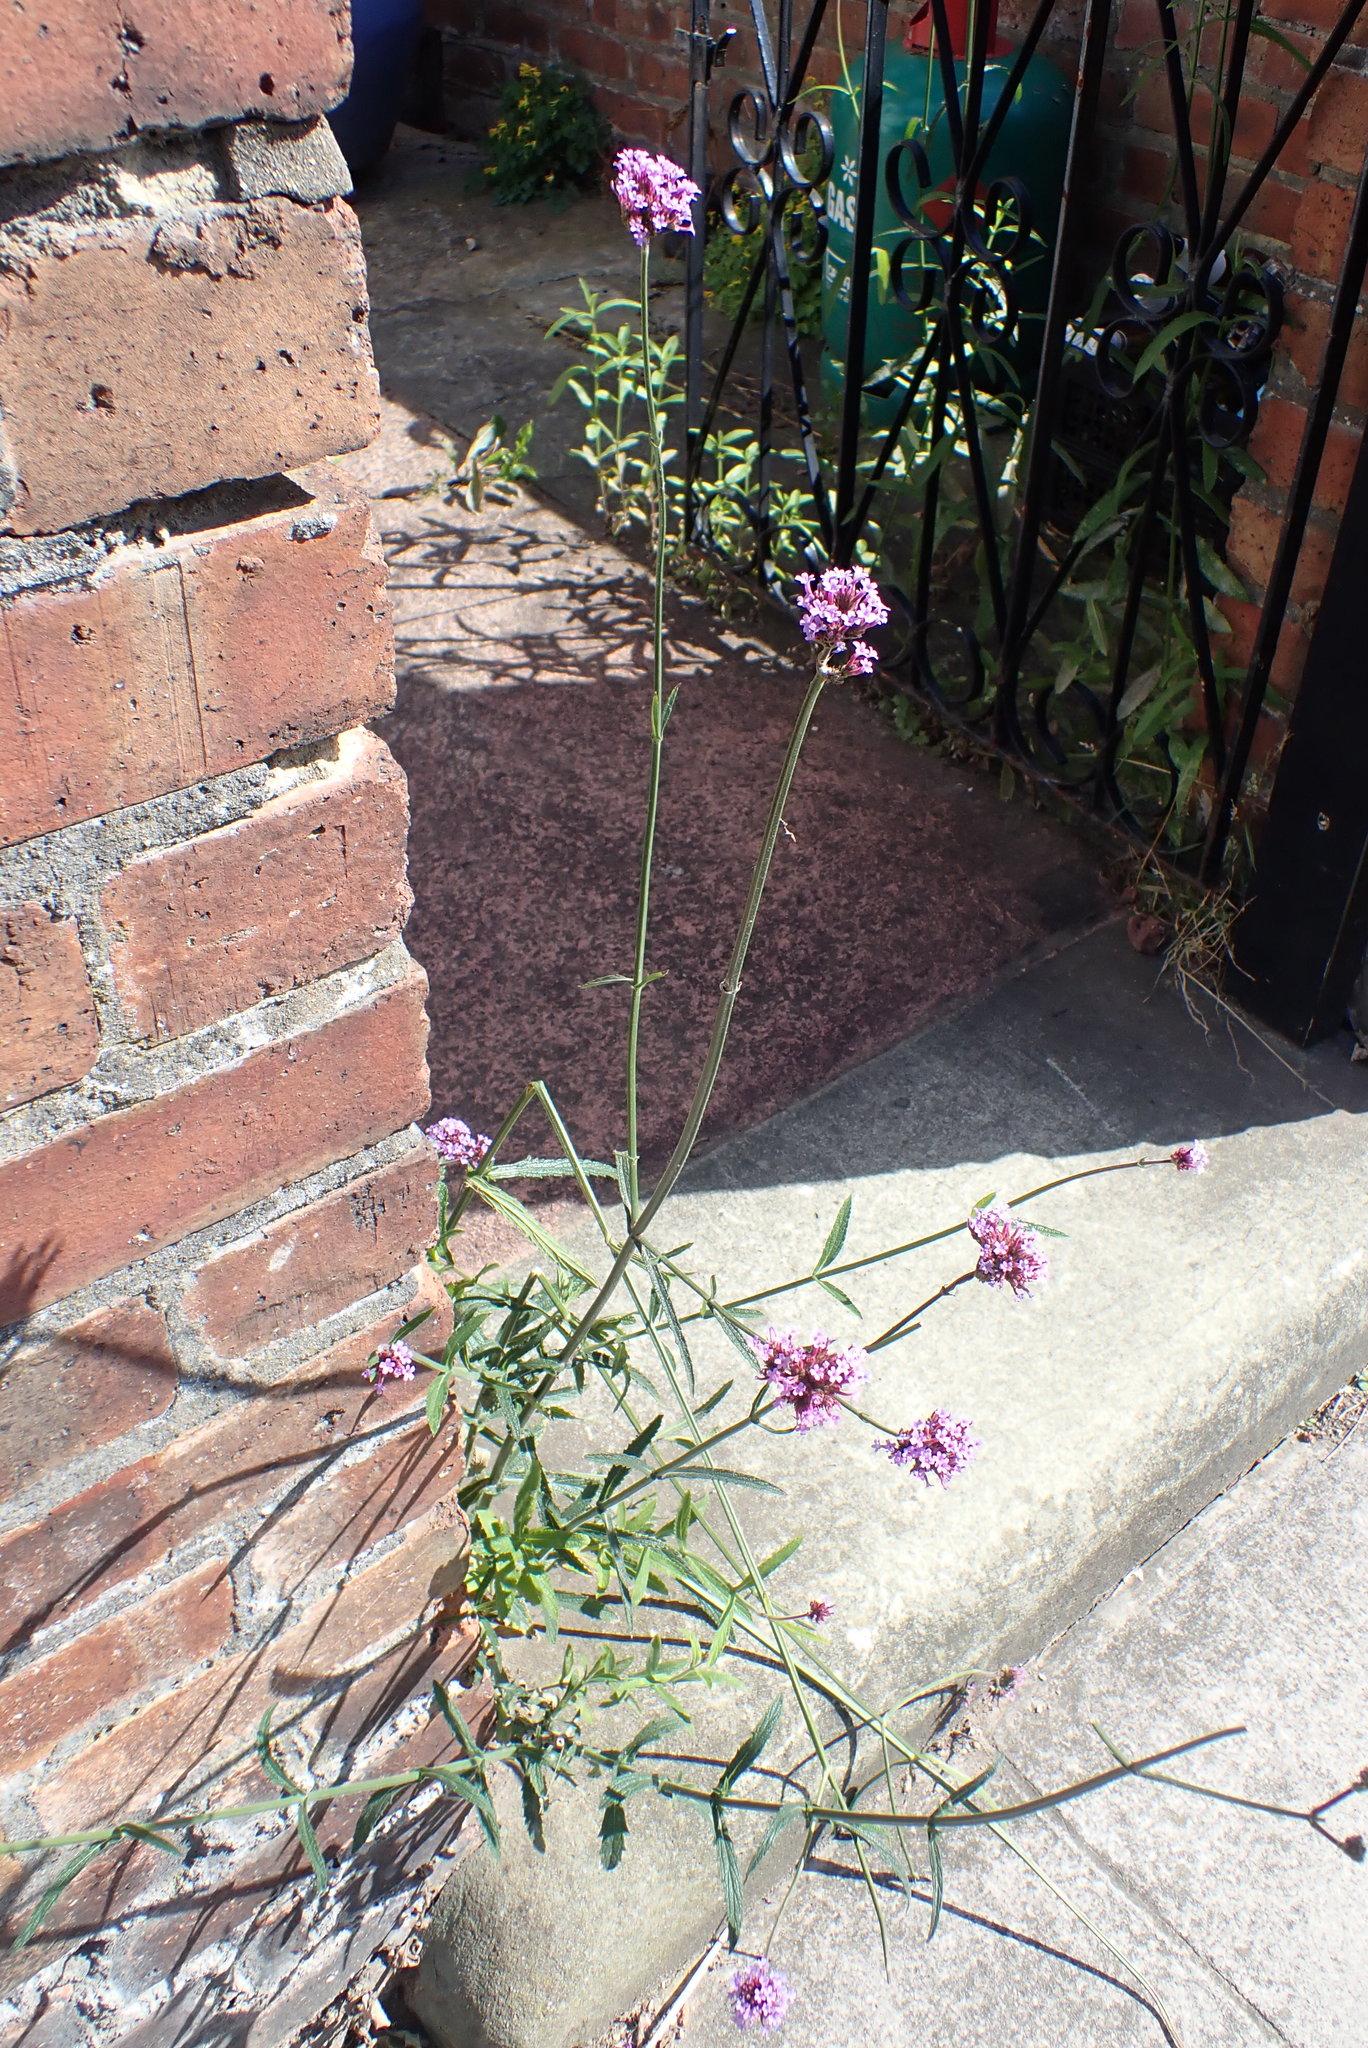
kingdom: Plantae
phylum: Tracheophyta
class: Magnoliopsida
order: Lamiales
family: Verbenaceae
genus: Verbena
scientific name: Verbena bonariensis
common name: Purpletop vervain
